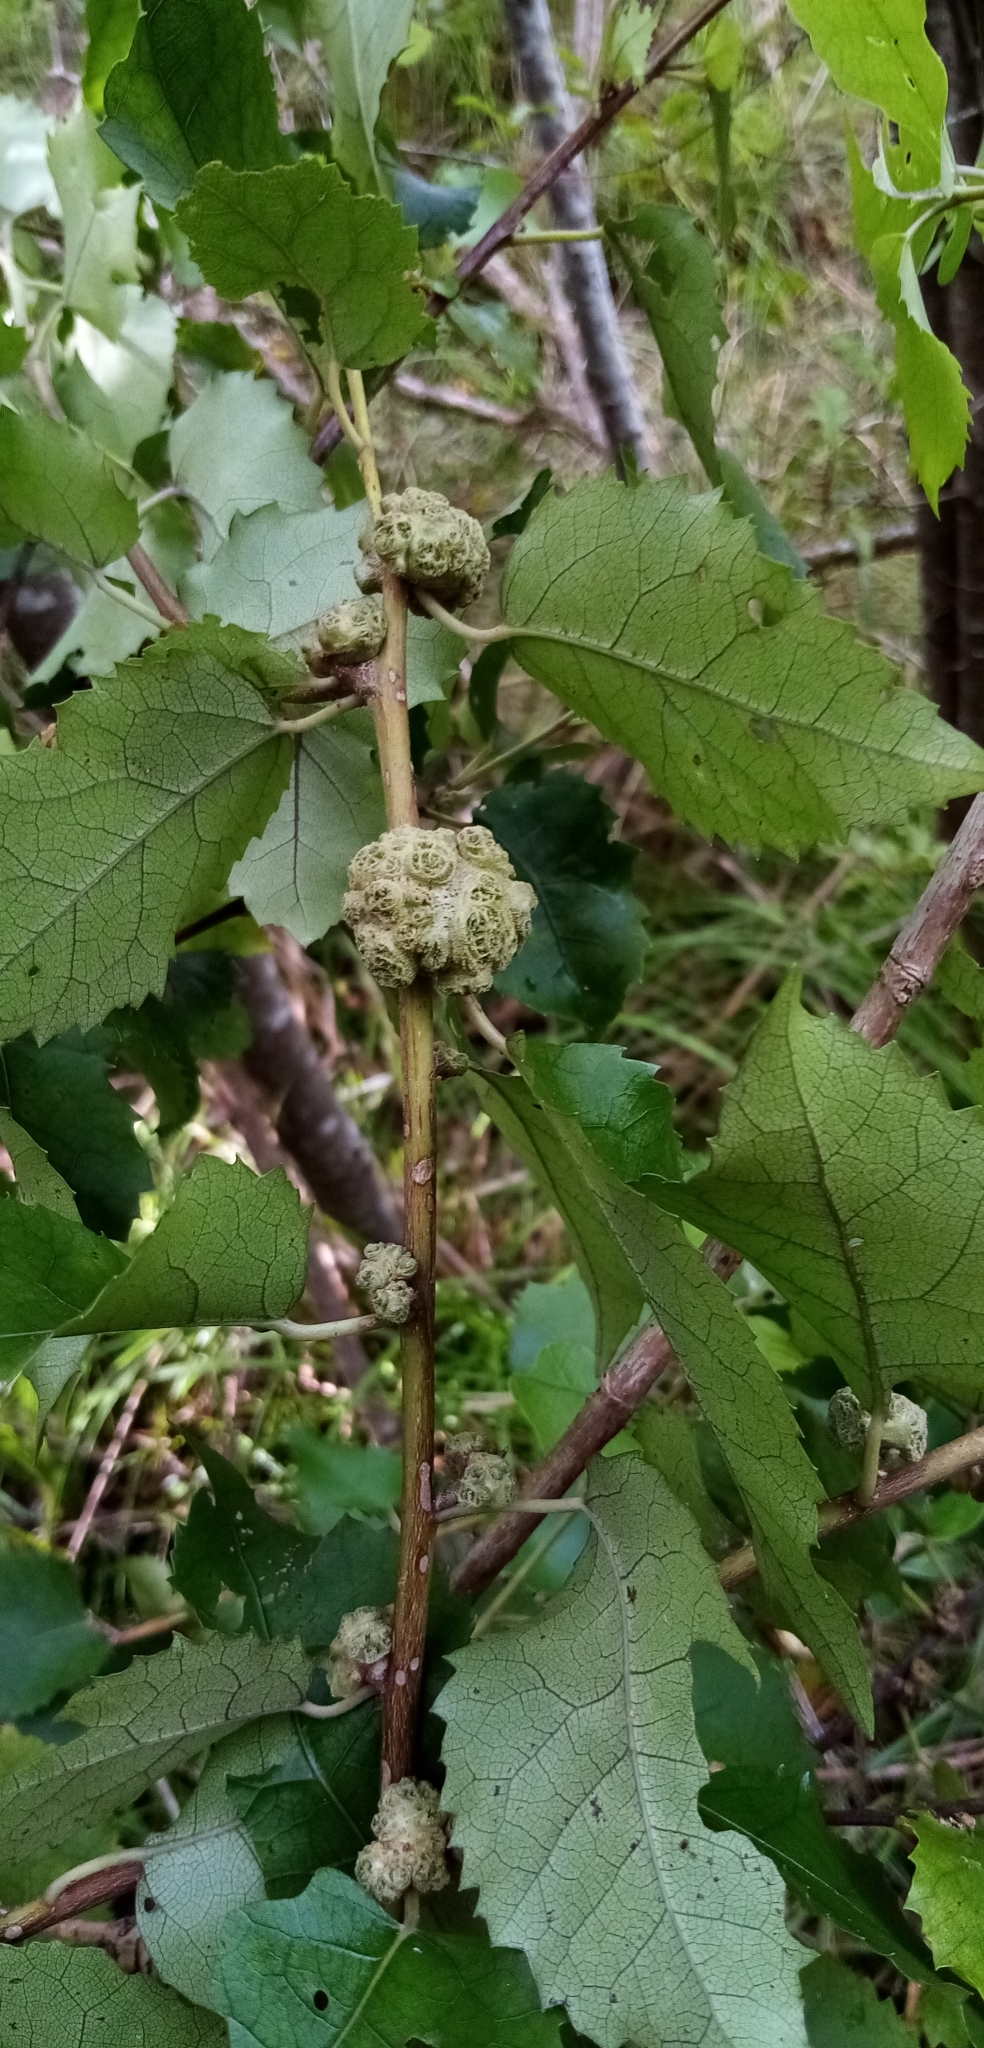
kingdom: Plantae
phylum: Tracheophyta
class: Magnoliopsida
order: Malvales
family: Malvaceae
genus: Hoheria
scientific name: Hoheria populnea
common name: Lacebark
